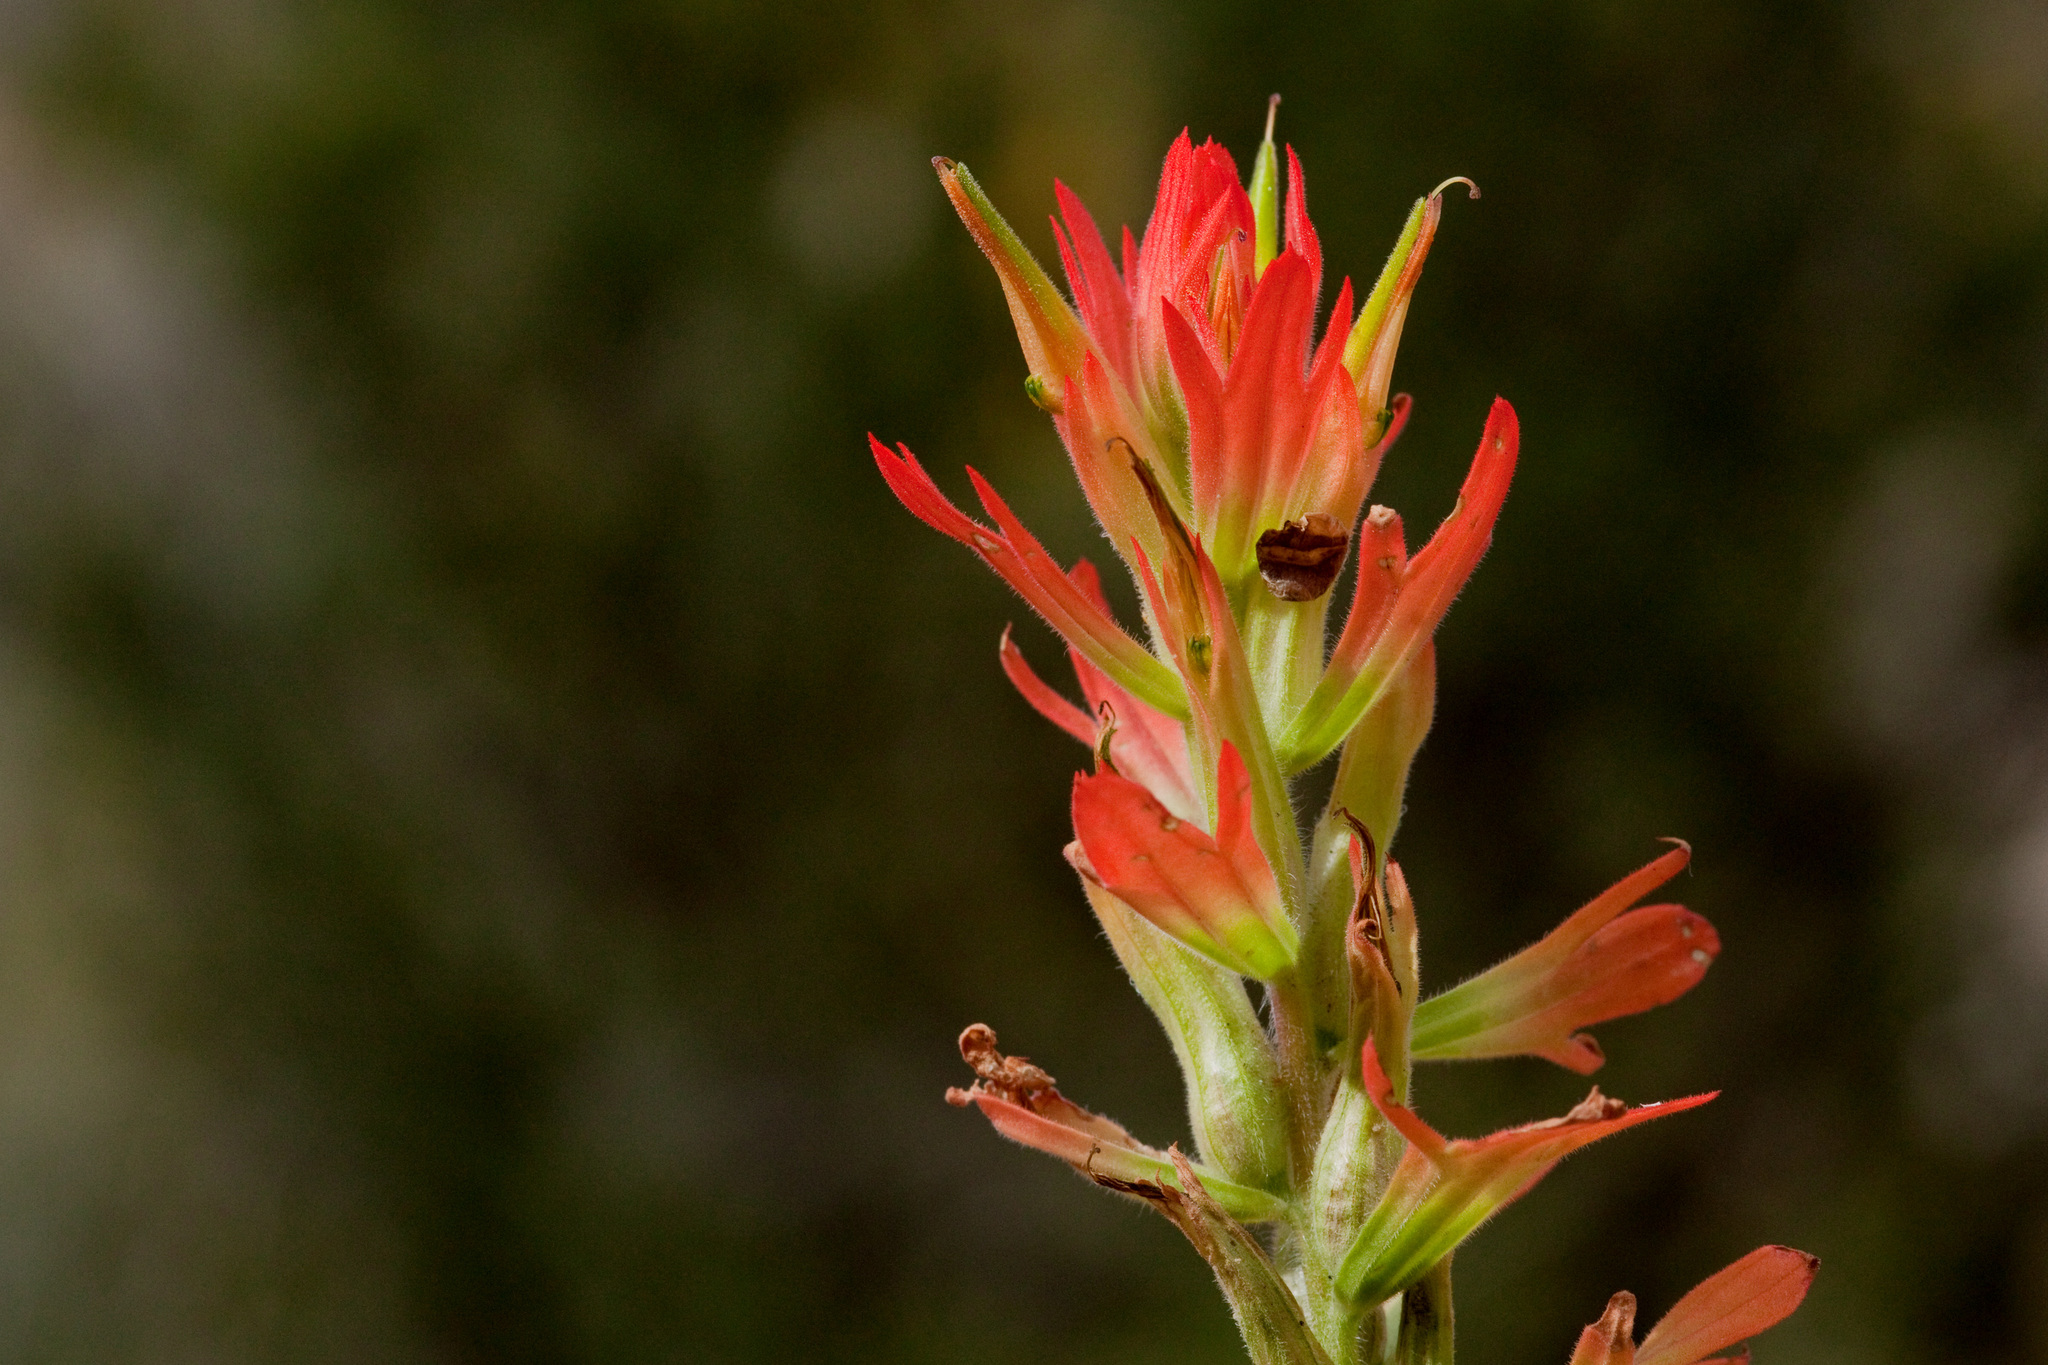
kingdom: Plantae
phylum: Tracheophyta
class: Magnoliopsida
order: Lamiales
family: Orobanchaceae
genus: Castilleja
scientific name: Castilleja organorum
